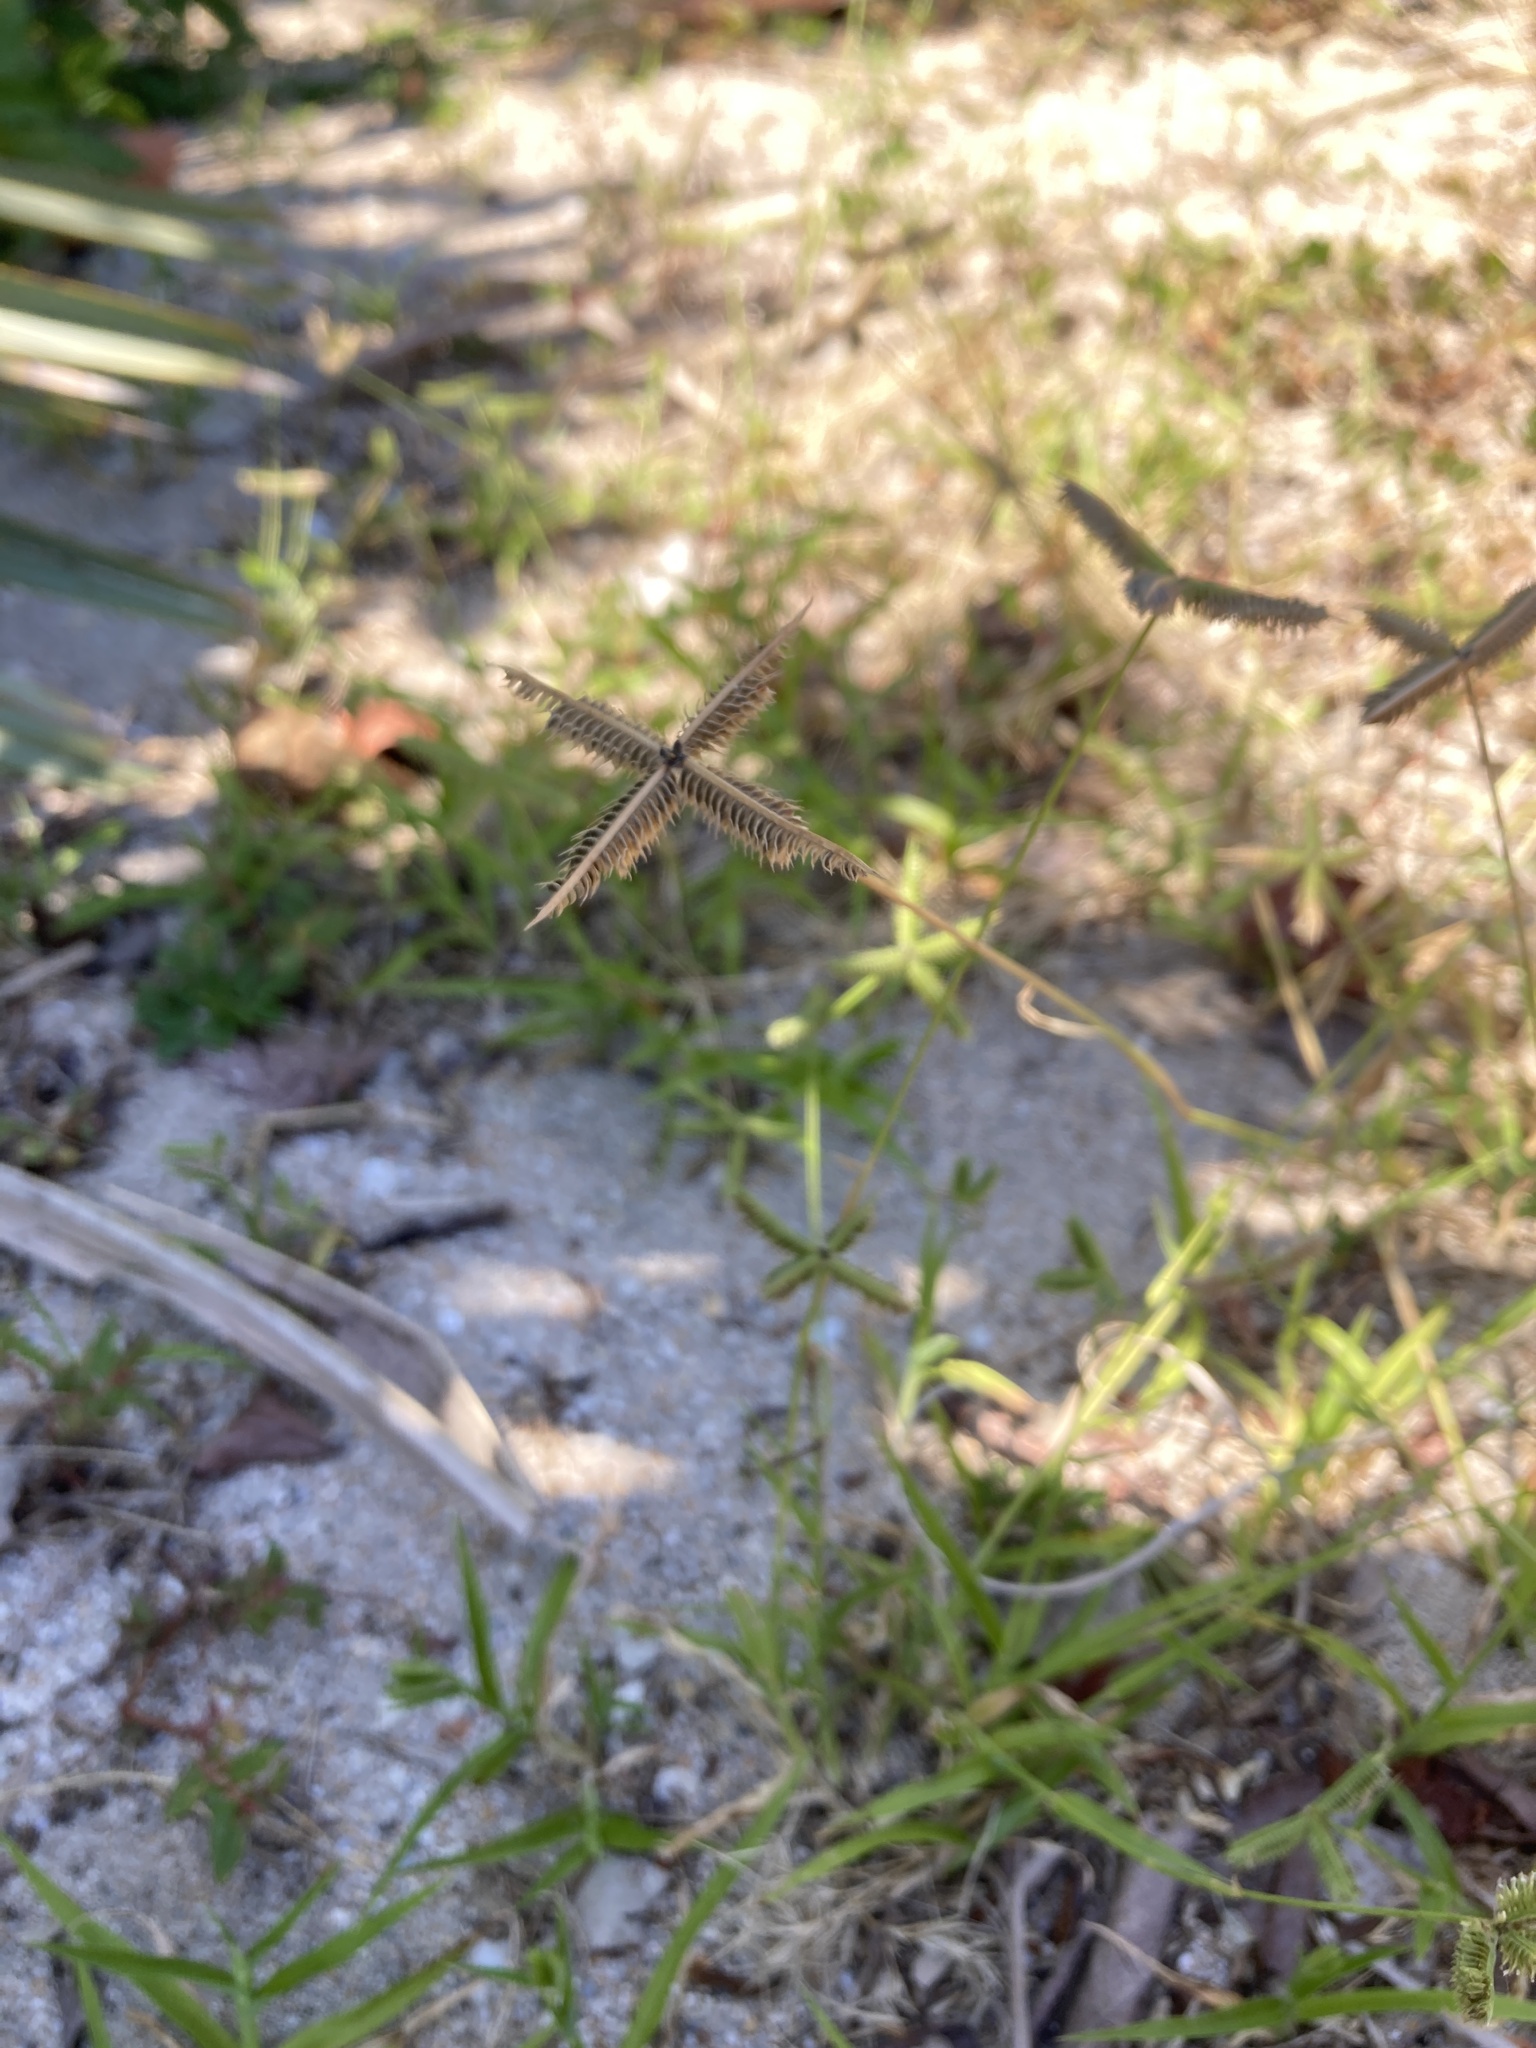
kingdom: Plantae
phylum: Tracheophyta
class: Liliopsida
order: Poales
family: Poaceae
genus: Dactyloctenium
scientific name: Dactyloctenium aegyptium
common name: Egyptian grass
